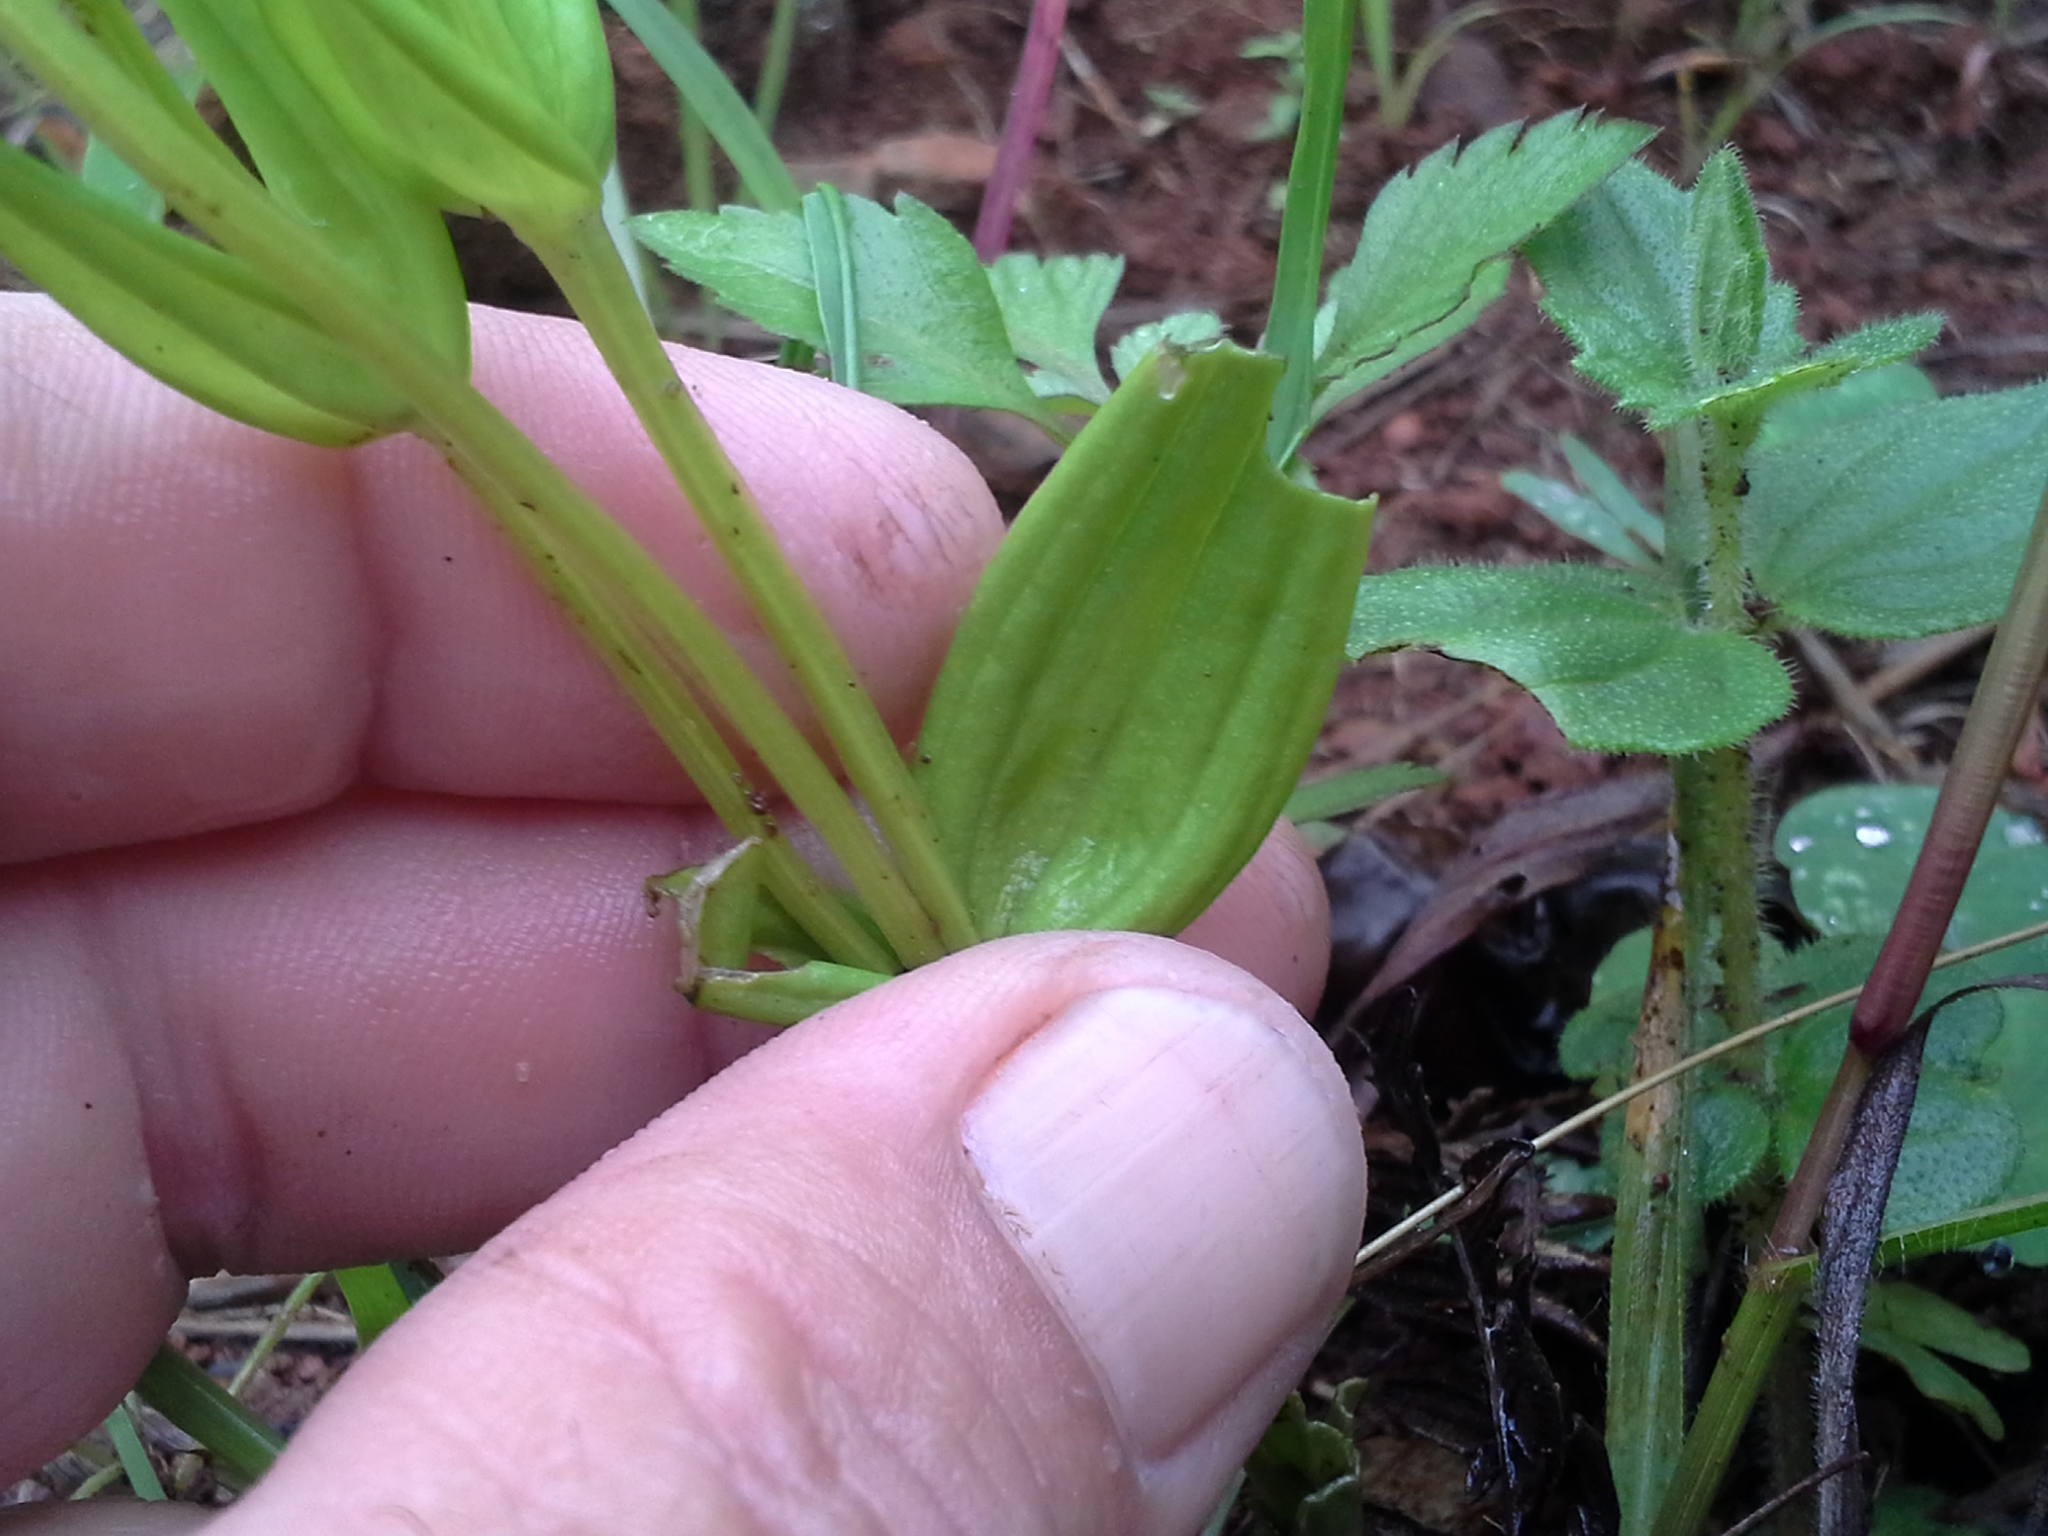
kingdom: Plantae
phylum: Tracheophyta
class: Magnoliopsida
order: Gentianales
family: Gentianaceae
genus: Exochaenium
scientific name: Exochaenium grande
